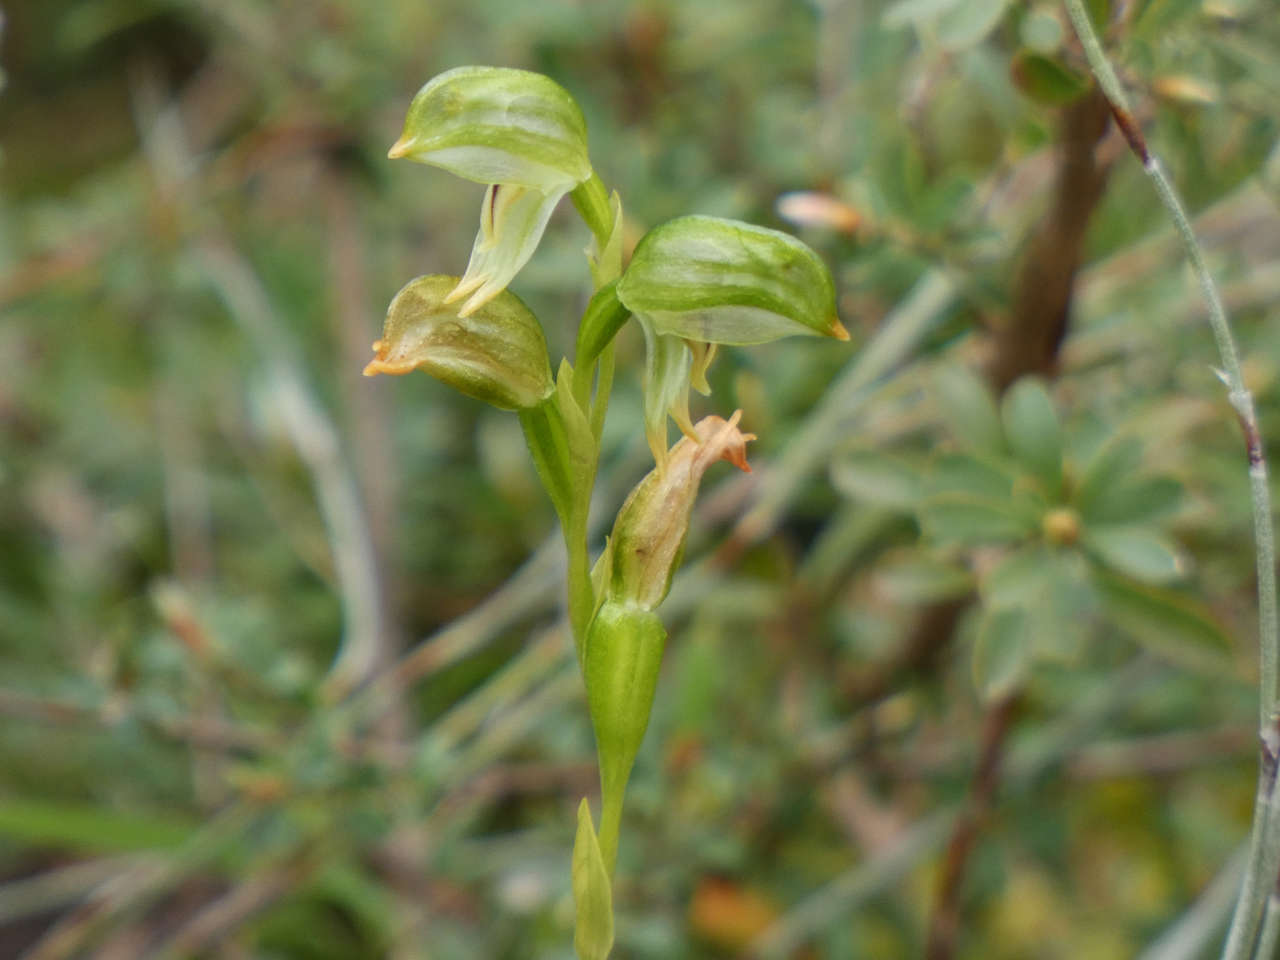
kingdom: Plantae
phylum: Tracheophyta
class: Liliopsida
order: Asparagales
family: Orchidaceae
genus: Pterostylis
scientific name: Pterostylis melagramma
